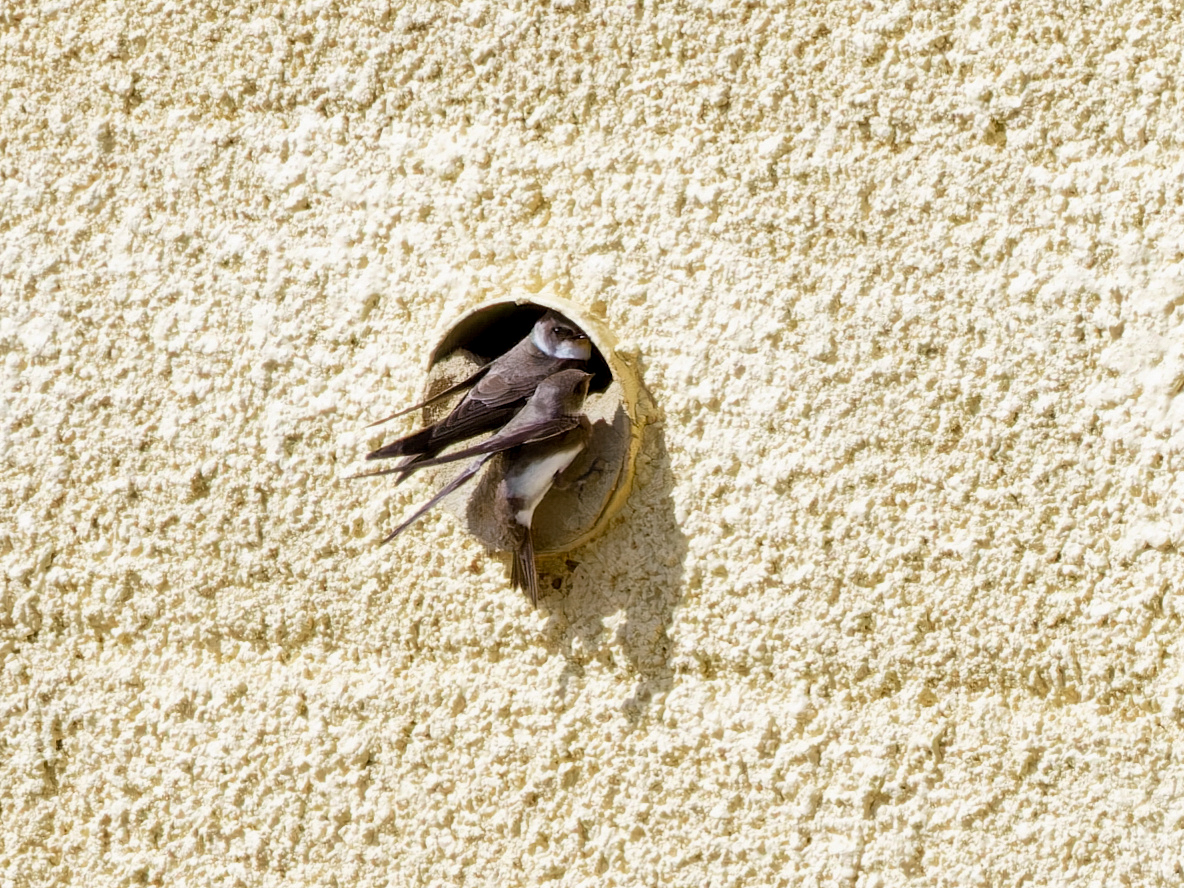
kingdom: Animalia
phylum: Chordata
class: Aves
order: Passeriformes
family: Hirundinidae
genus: Riparia
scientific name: Riparia riparia
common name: Sand martin
